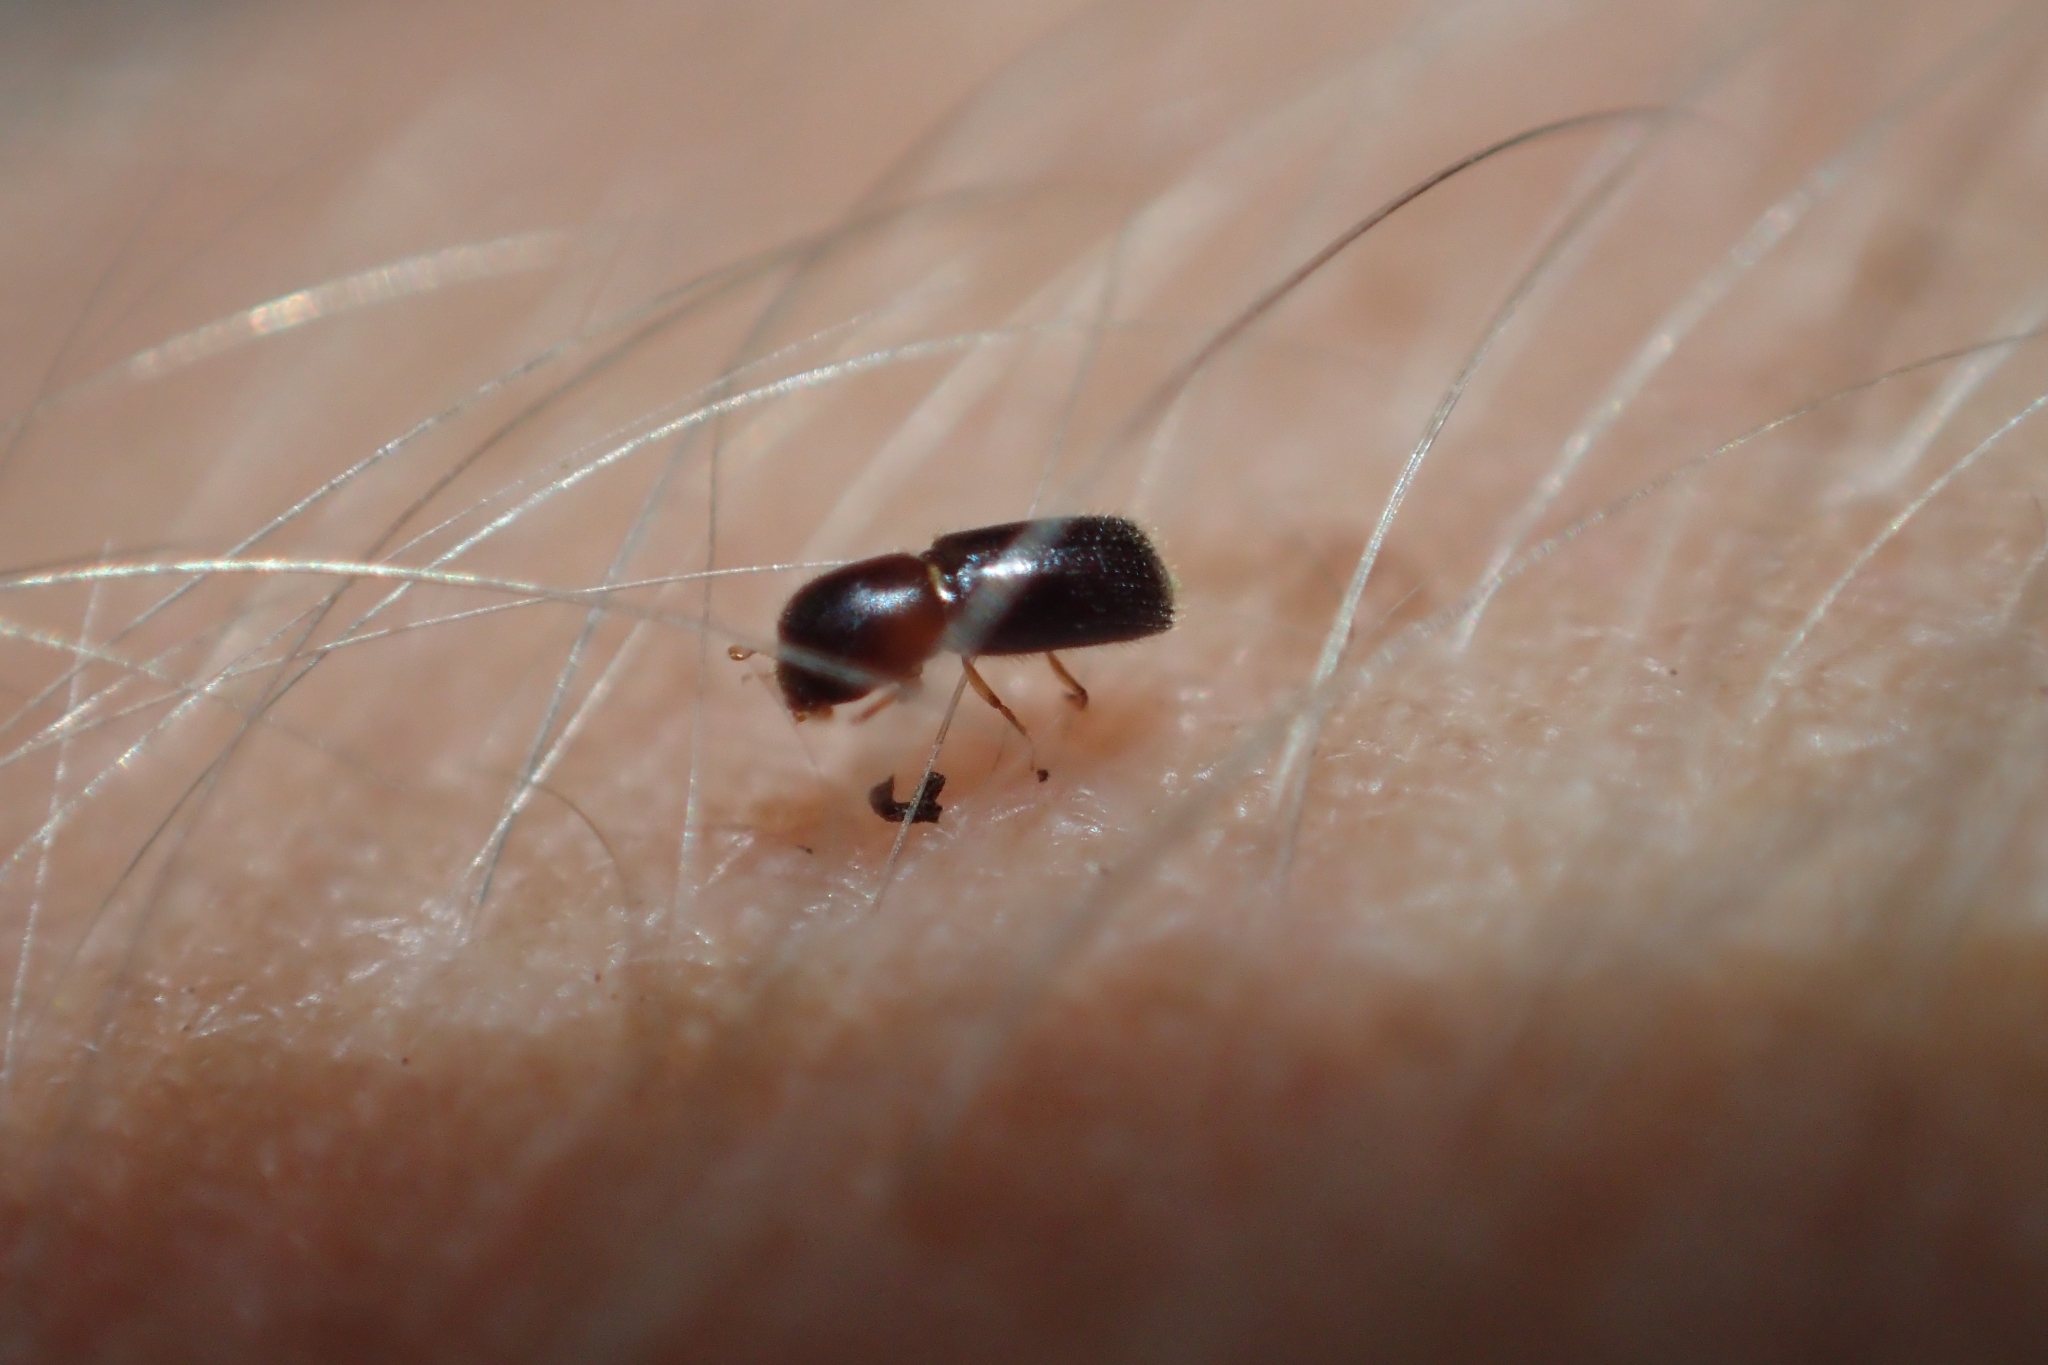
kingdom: Animalia
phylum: Arthropoda
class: Insecta
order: Coleoptera
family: Curculionidae
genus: Microperus
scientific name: Microperus eucalyptica
